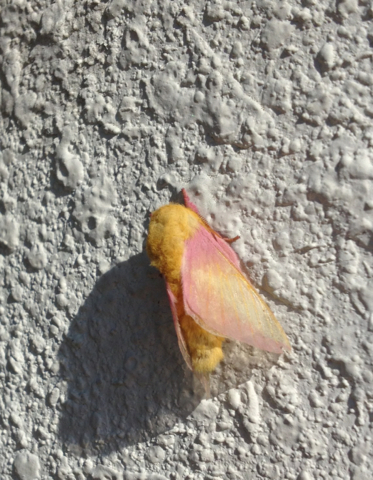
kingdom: Animalia
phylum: Arthropoda
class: Insecta
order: Lepidoptera
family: Saturniidae
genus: Dryocampa
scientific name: Dryocampa rubicunda
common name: Rosy maple moth
